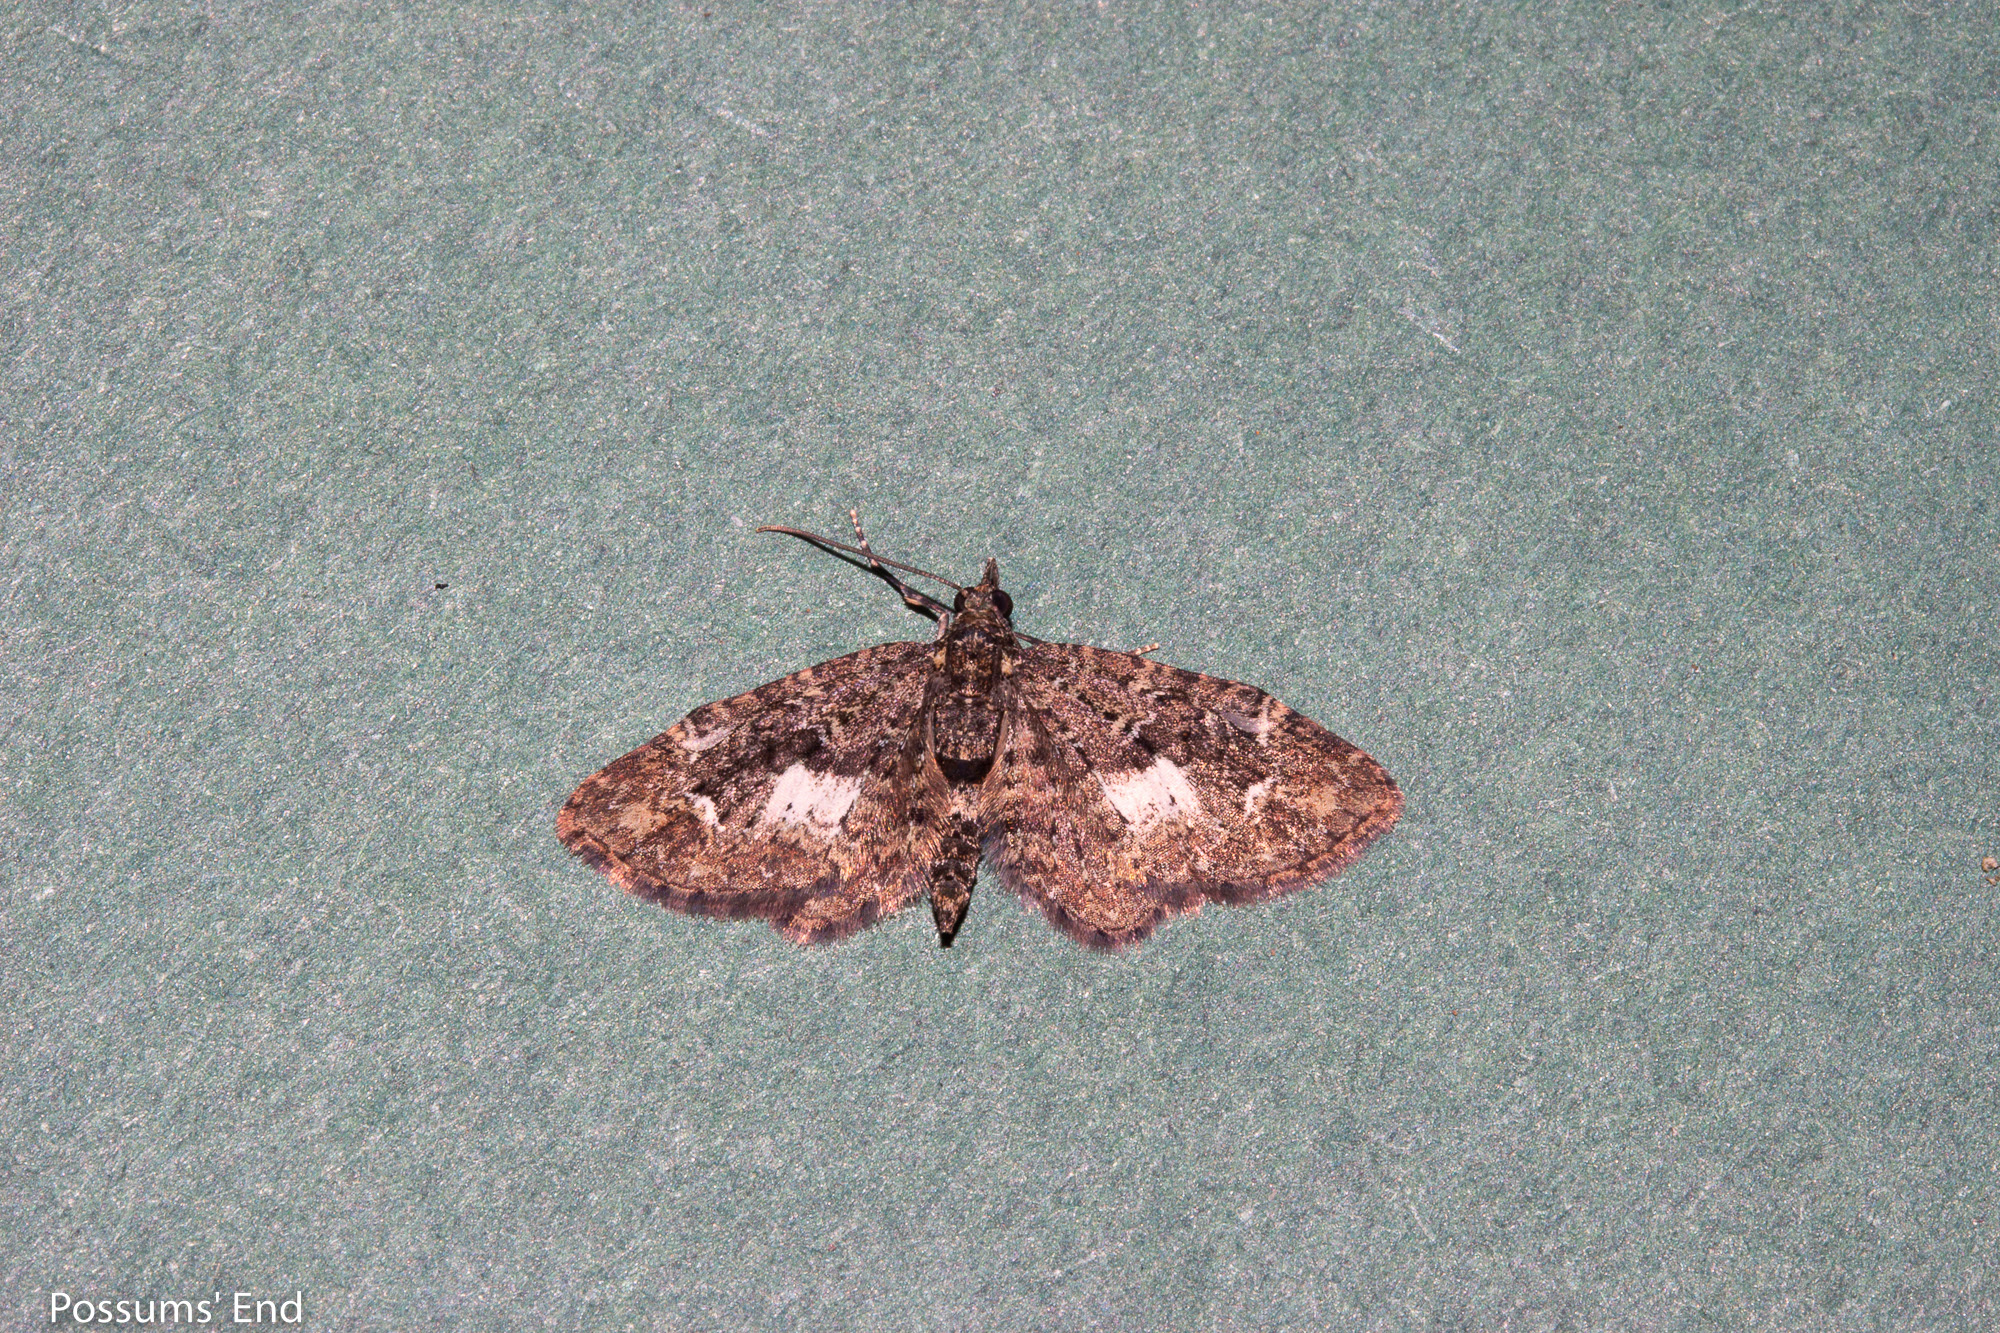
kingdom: Animalia
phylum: Arthropoda
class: Insecta
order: Lepidoptera
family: Geometridae
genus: Pasiphilodes
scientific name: Pasiphilodes testulata
